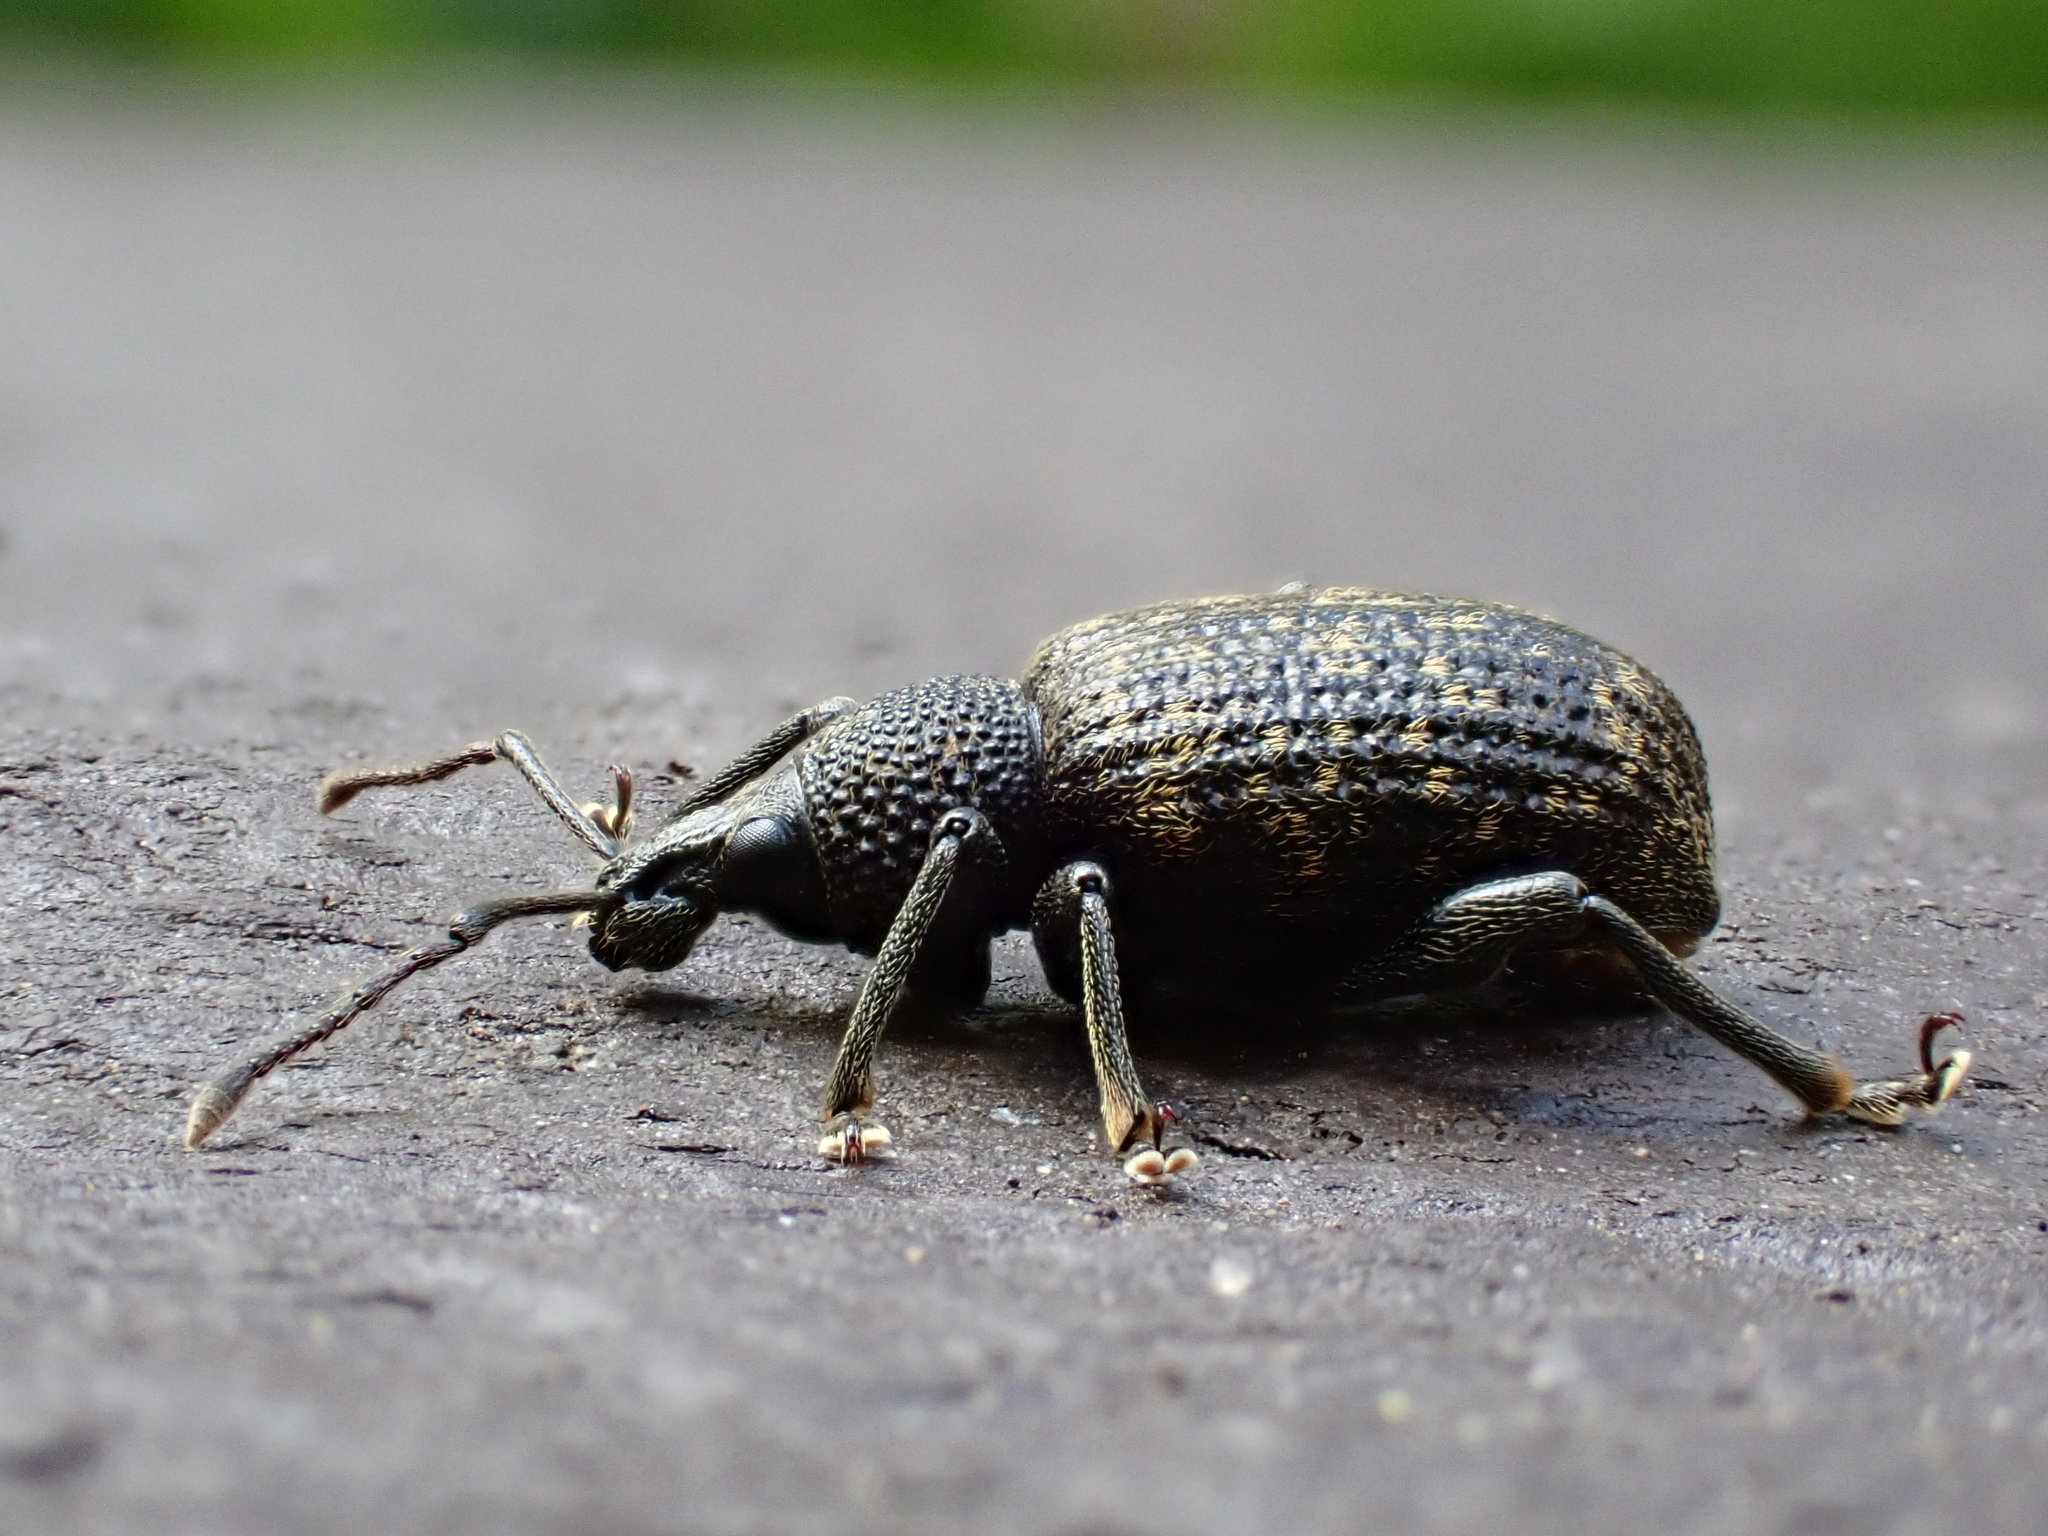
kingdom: Animalia
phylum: Arthropoda
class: Insecta
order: Coleoptera
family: Curculionidae
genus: Otiorhynchus
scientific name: Otiorhynchus sulcatus
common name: Black vine weevil
